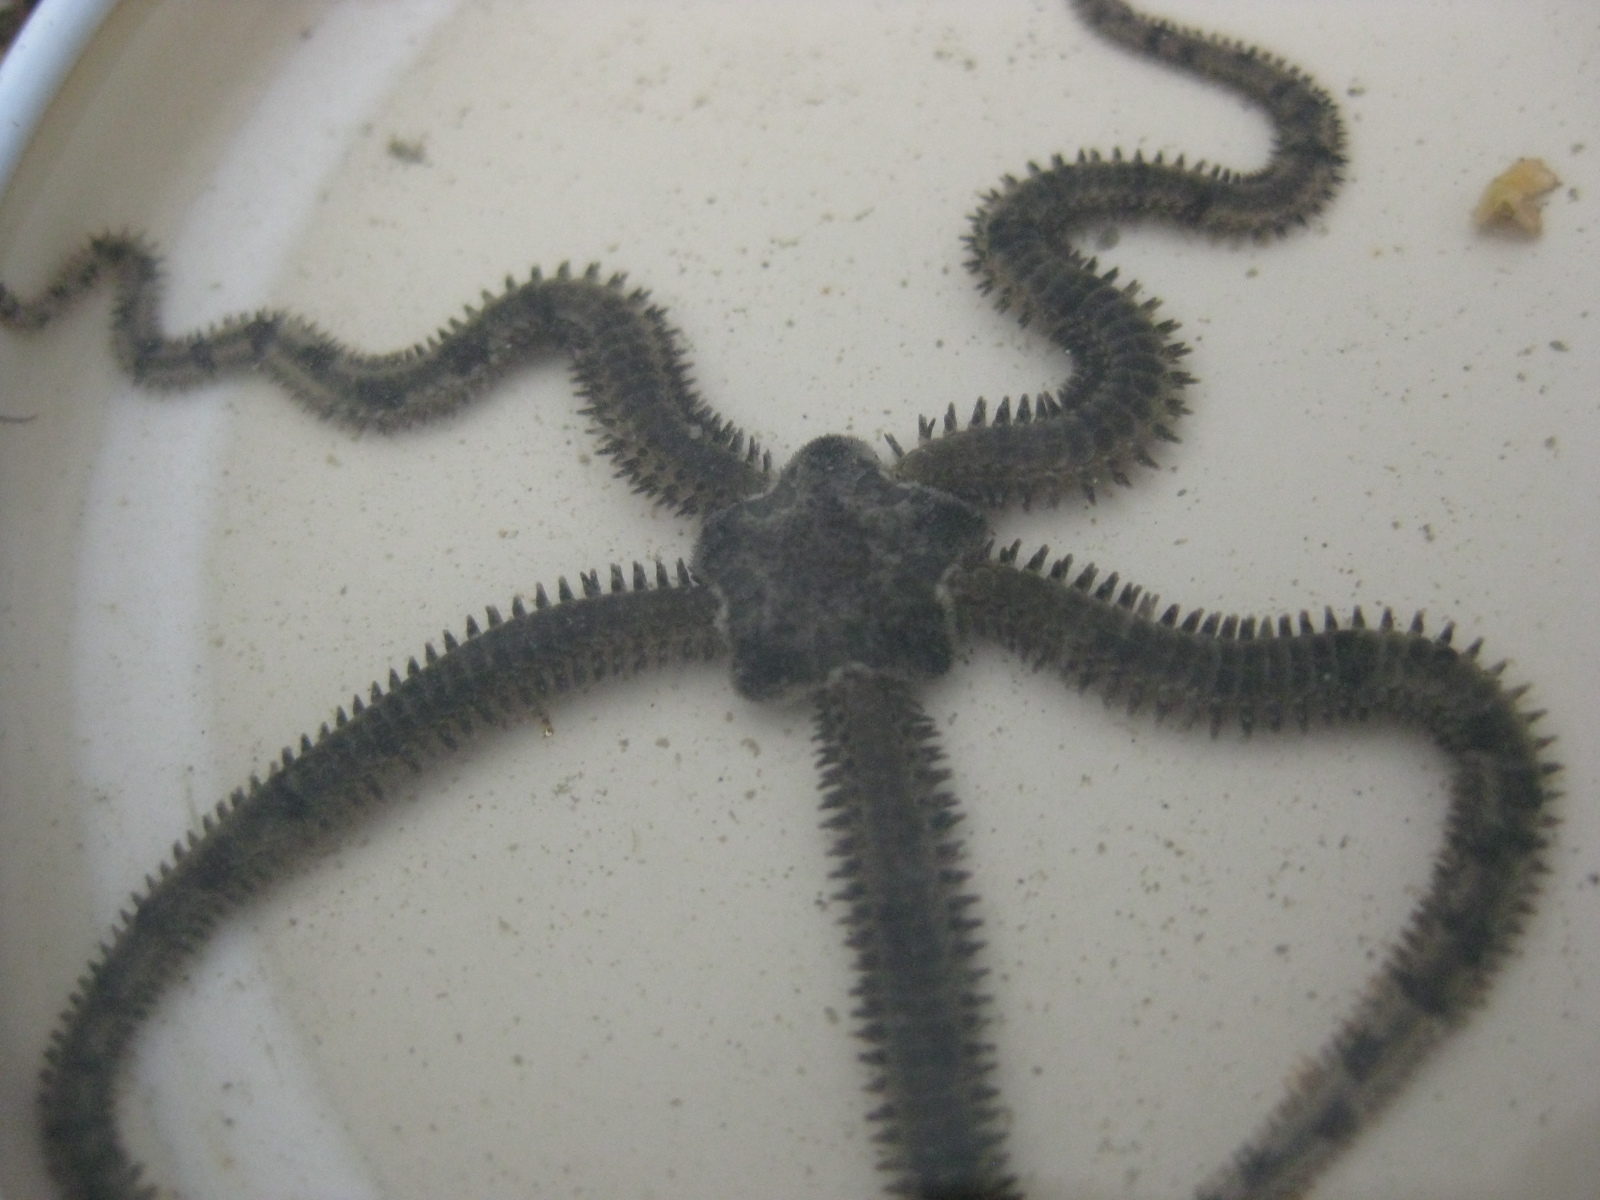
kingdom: Animalia
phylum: Echinodermata
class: Ophiuroidea
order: Amphilepidida
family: Ophiactidae
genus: Ophiactis
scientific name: Ophiactis resiliens
